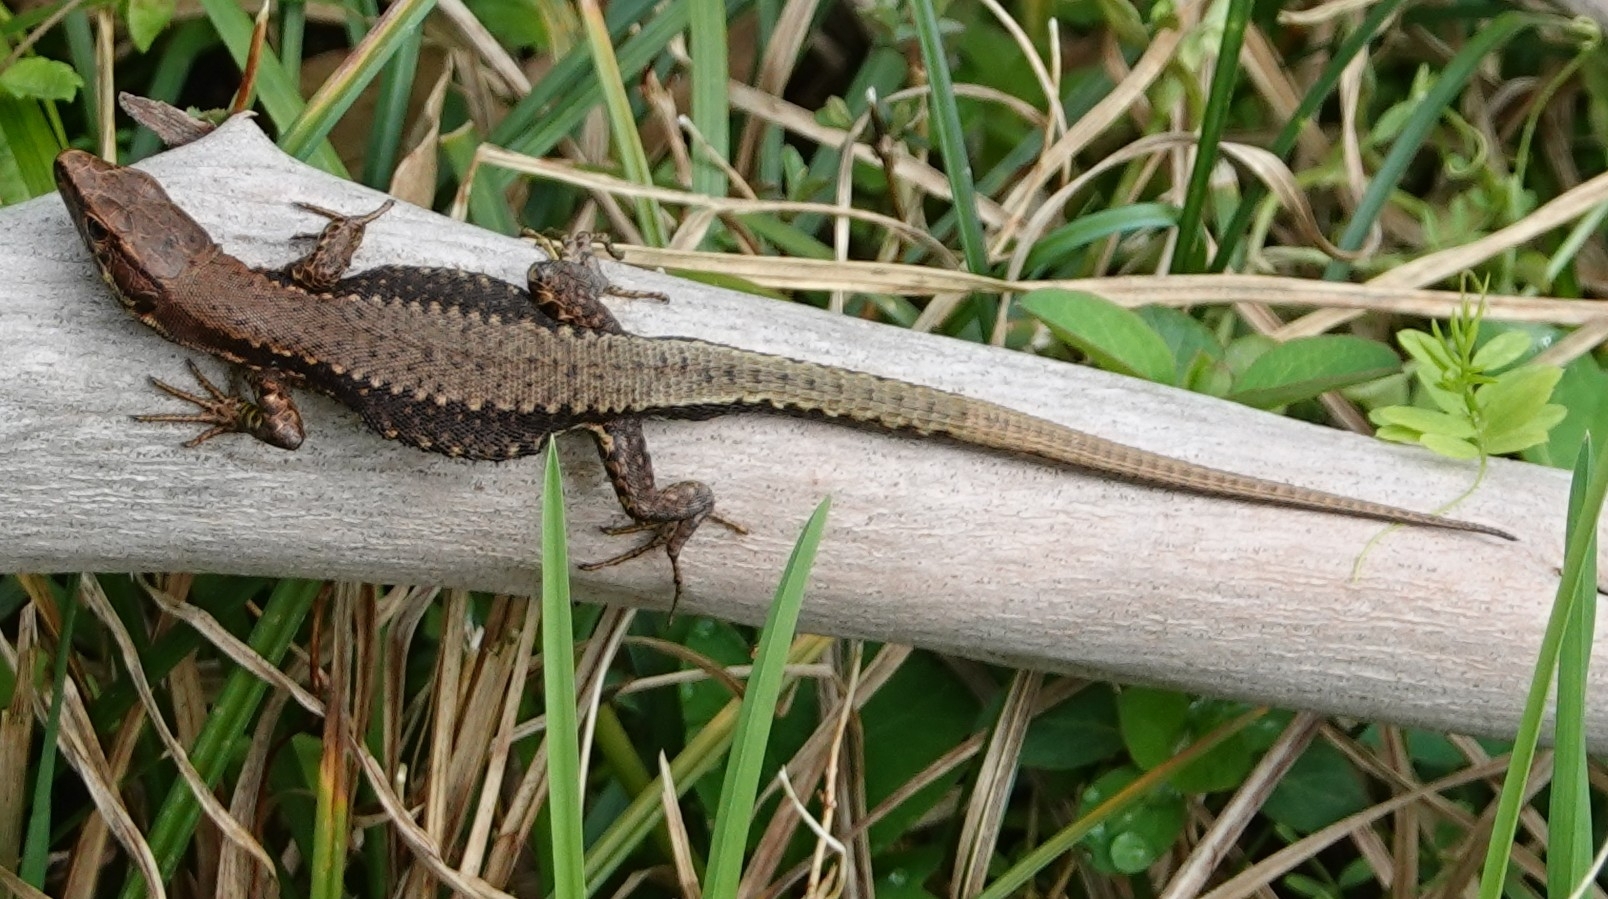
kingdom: Animalia
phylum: Chordata
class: Squamata
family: Lacertidae
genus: Darevskia
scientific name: Darevskia derjugini
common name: Derjugin's lizard
